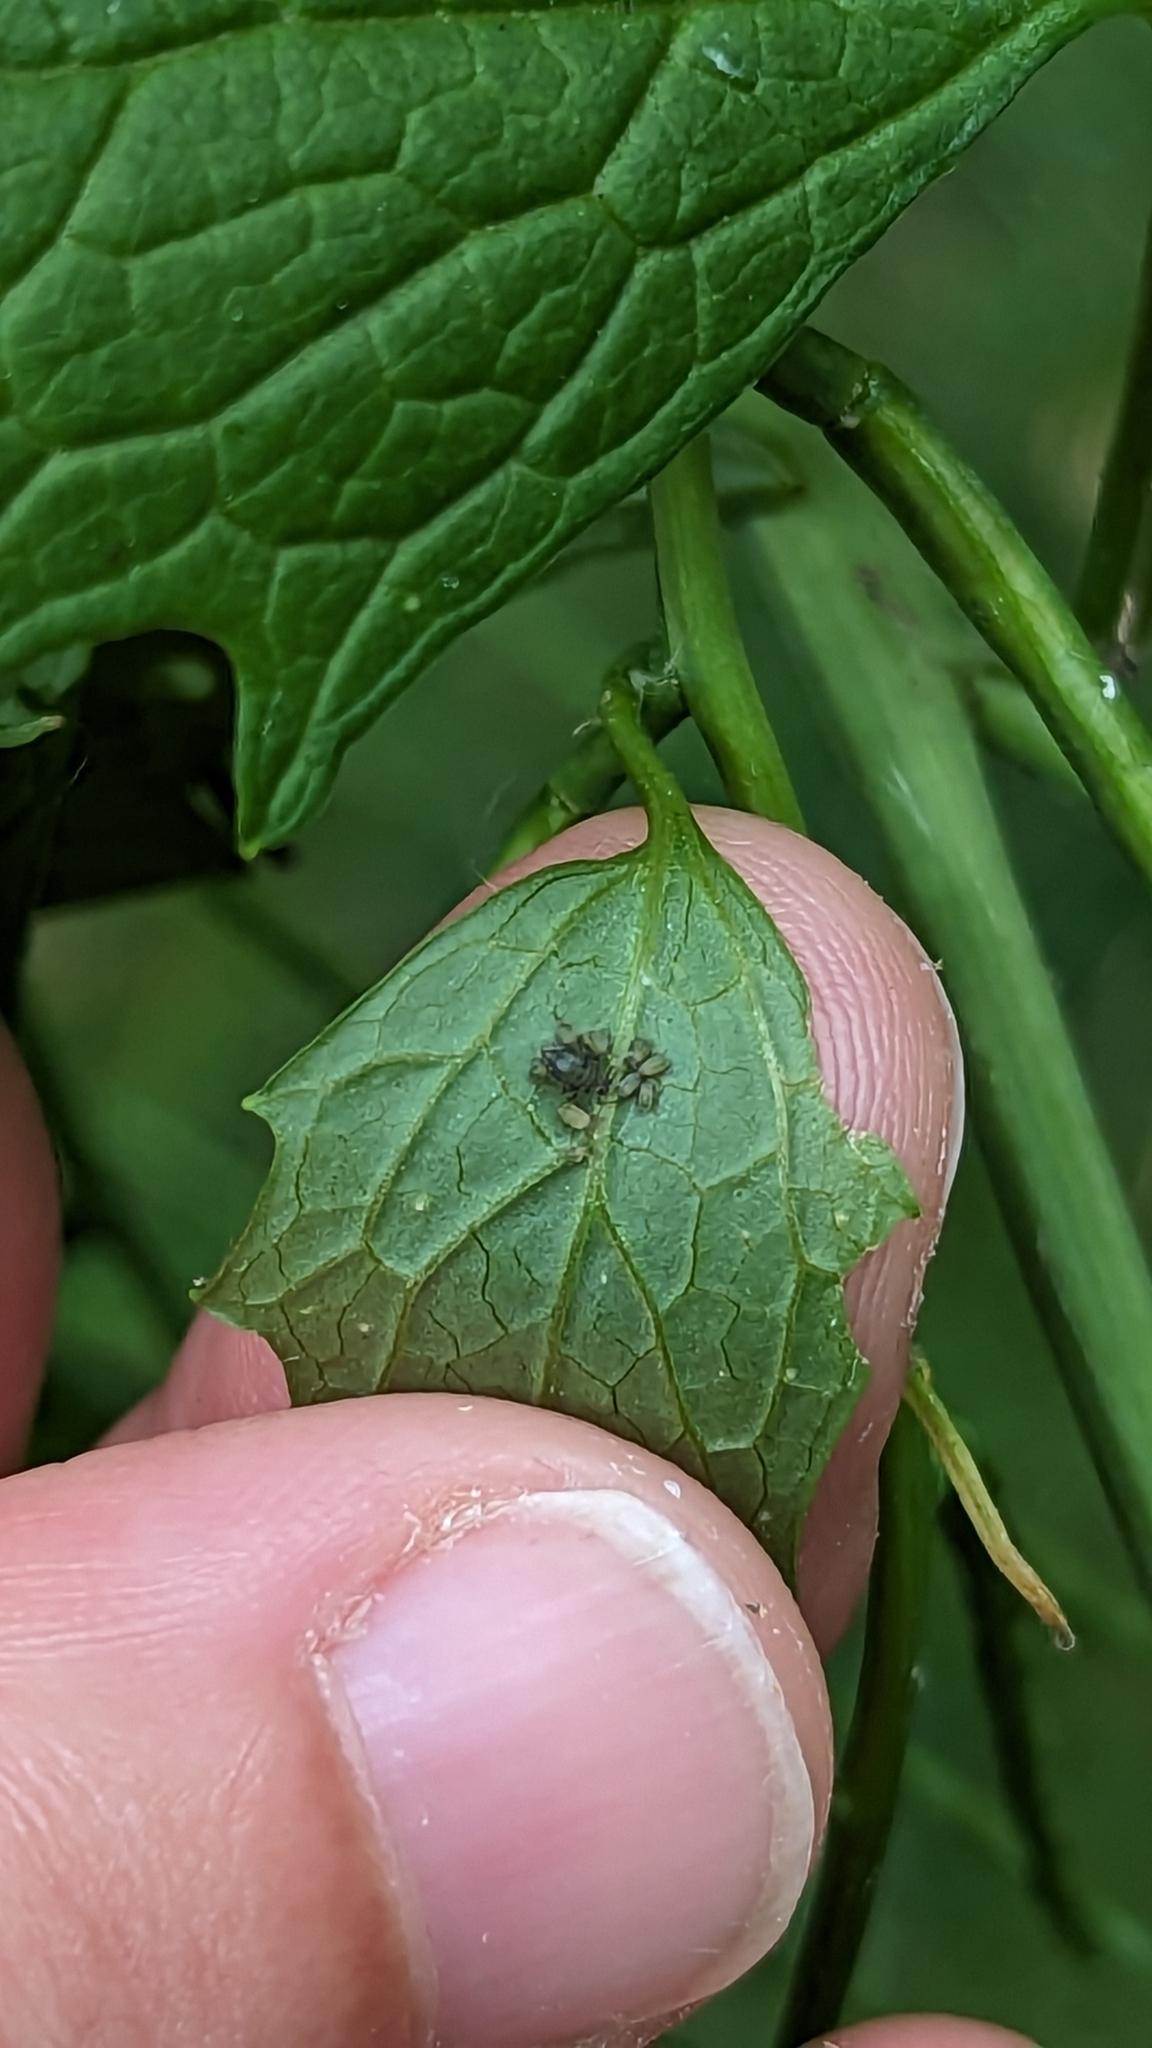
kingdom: Animalia
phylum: Arthropoda
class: Insecta
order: Hemiptera
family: Aphididae
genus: Lipaphis
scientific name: Lipaphis pseudobrassicae
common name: Turnip aphid
